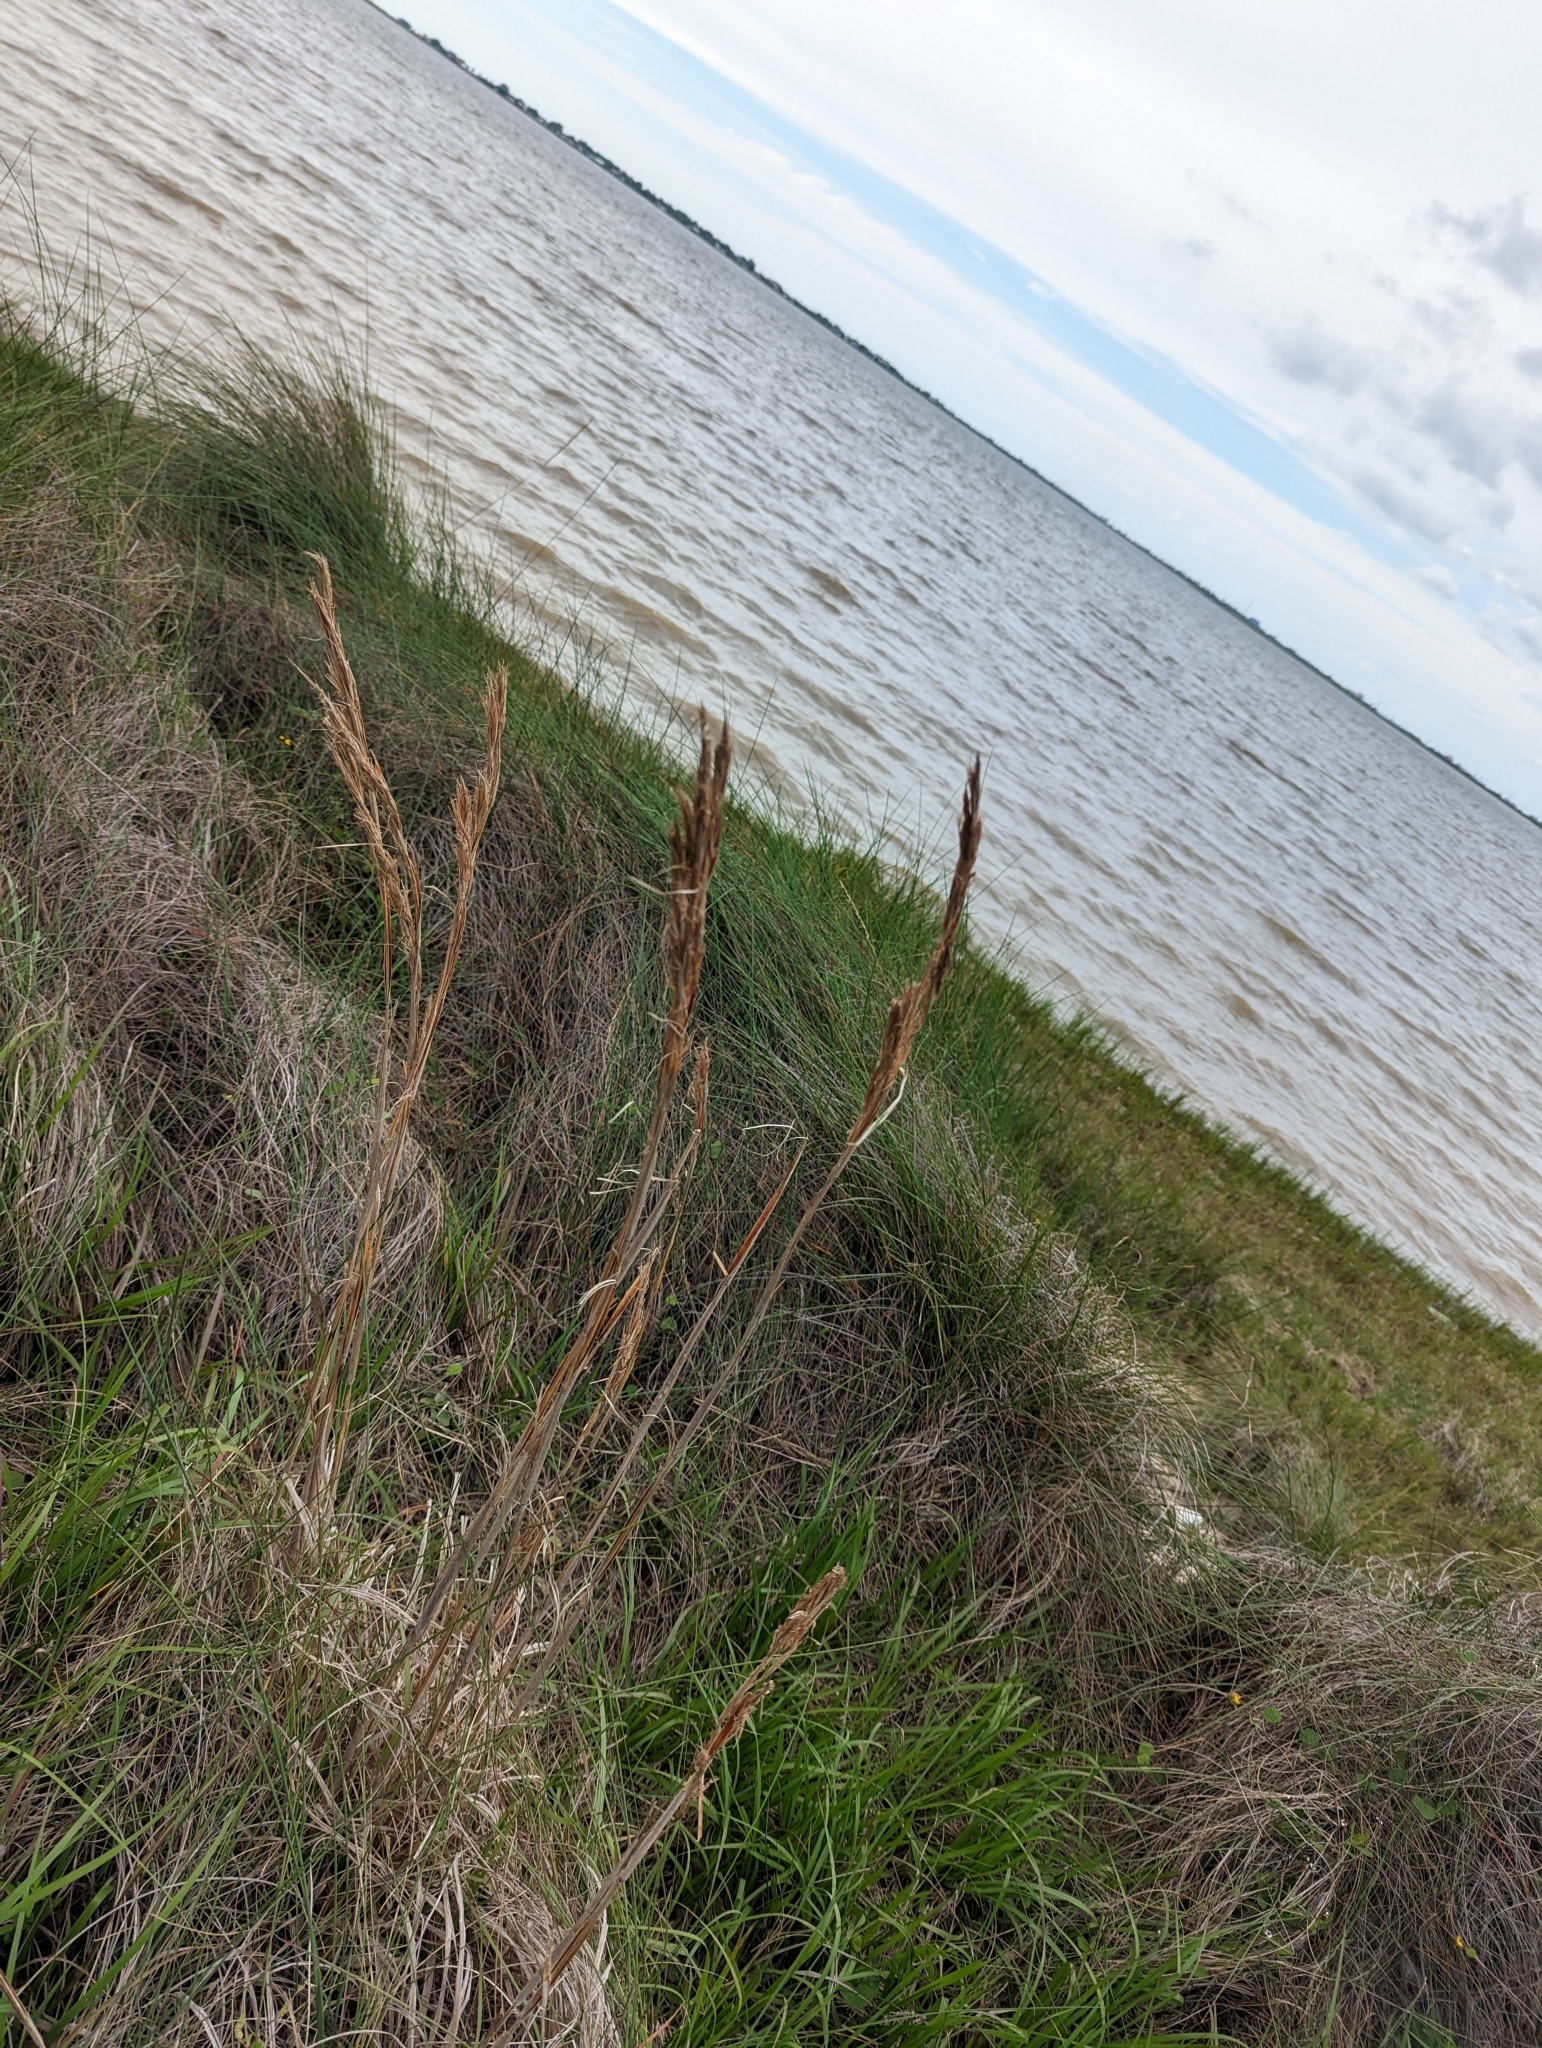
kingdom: Plantae
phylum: Tracheophyta
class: Liliopsida
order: Poales
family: Poaceae
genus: Andropogon
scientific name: Andropogon tenuispatheus
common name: Bushy bluestem
